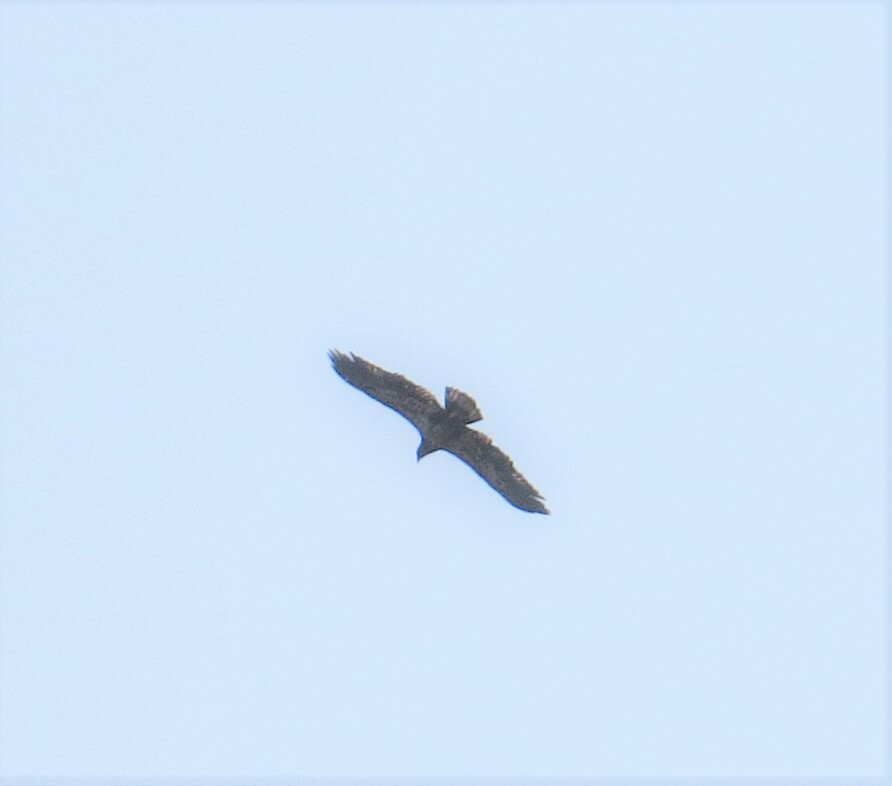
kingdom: Animalia
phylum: Chordata
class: Aves
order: Accipitriformes
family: Accipitridae
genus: Haliaeetus
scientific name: Haliaeetus leucocephalus
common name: Bald eagle
